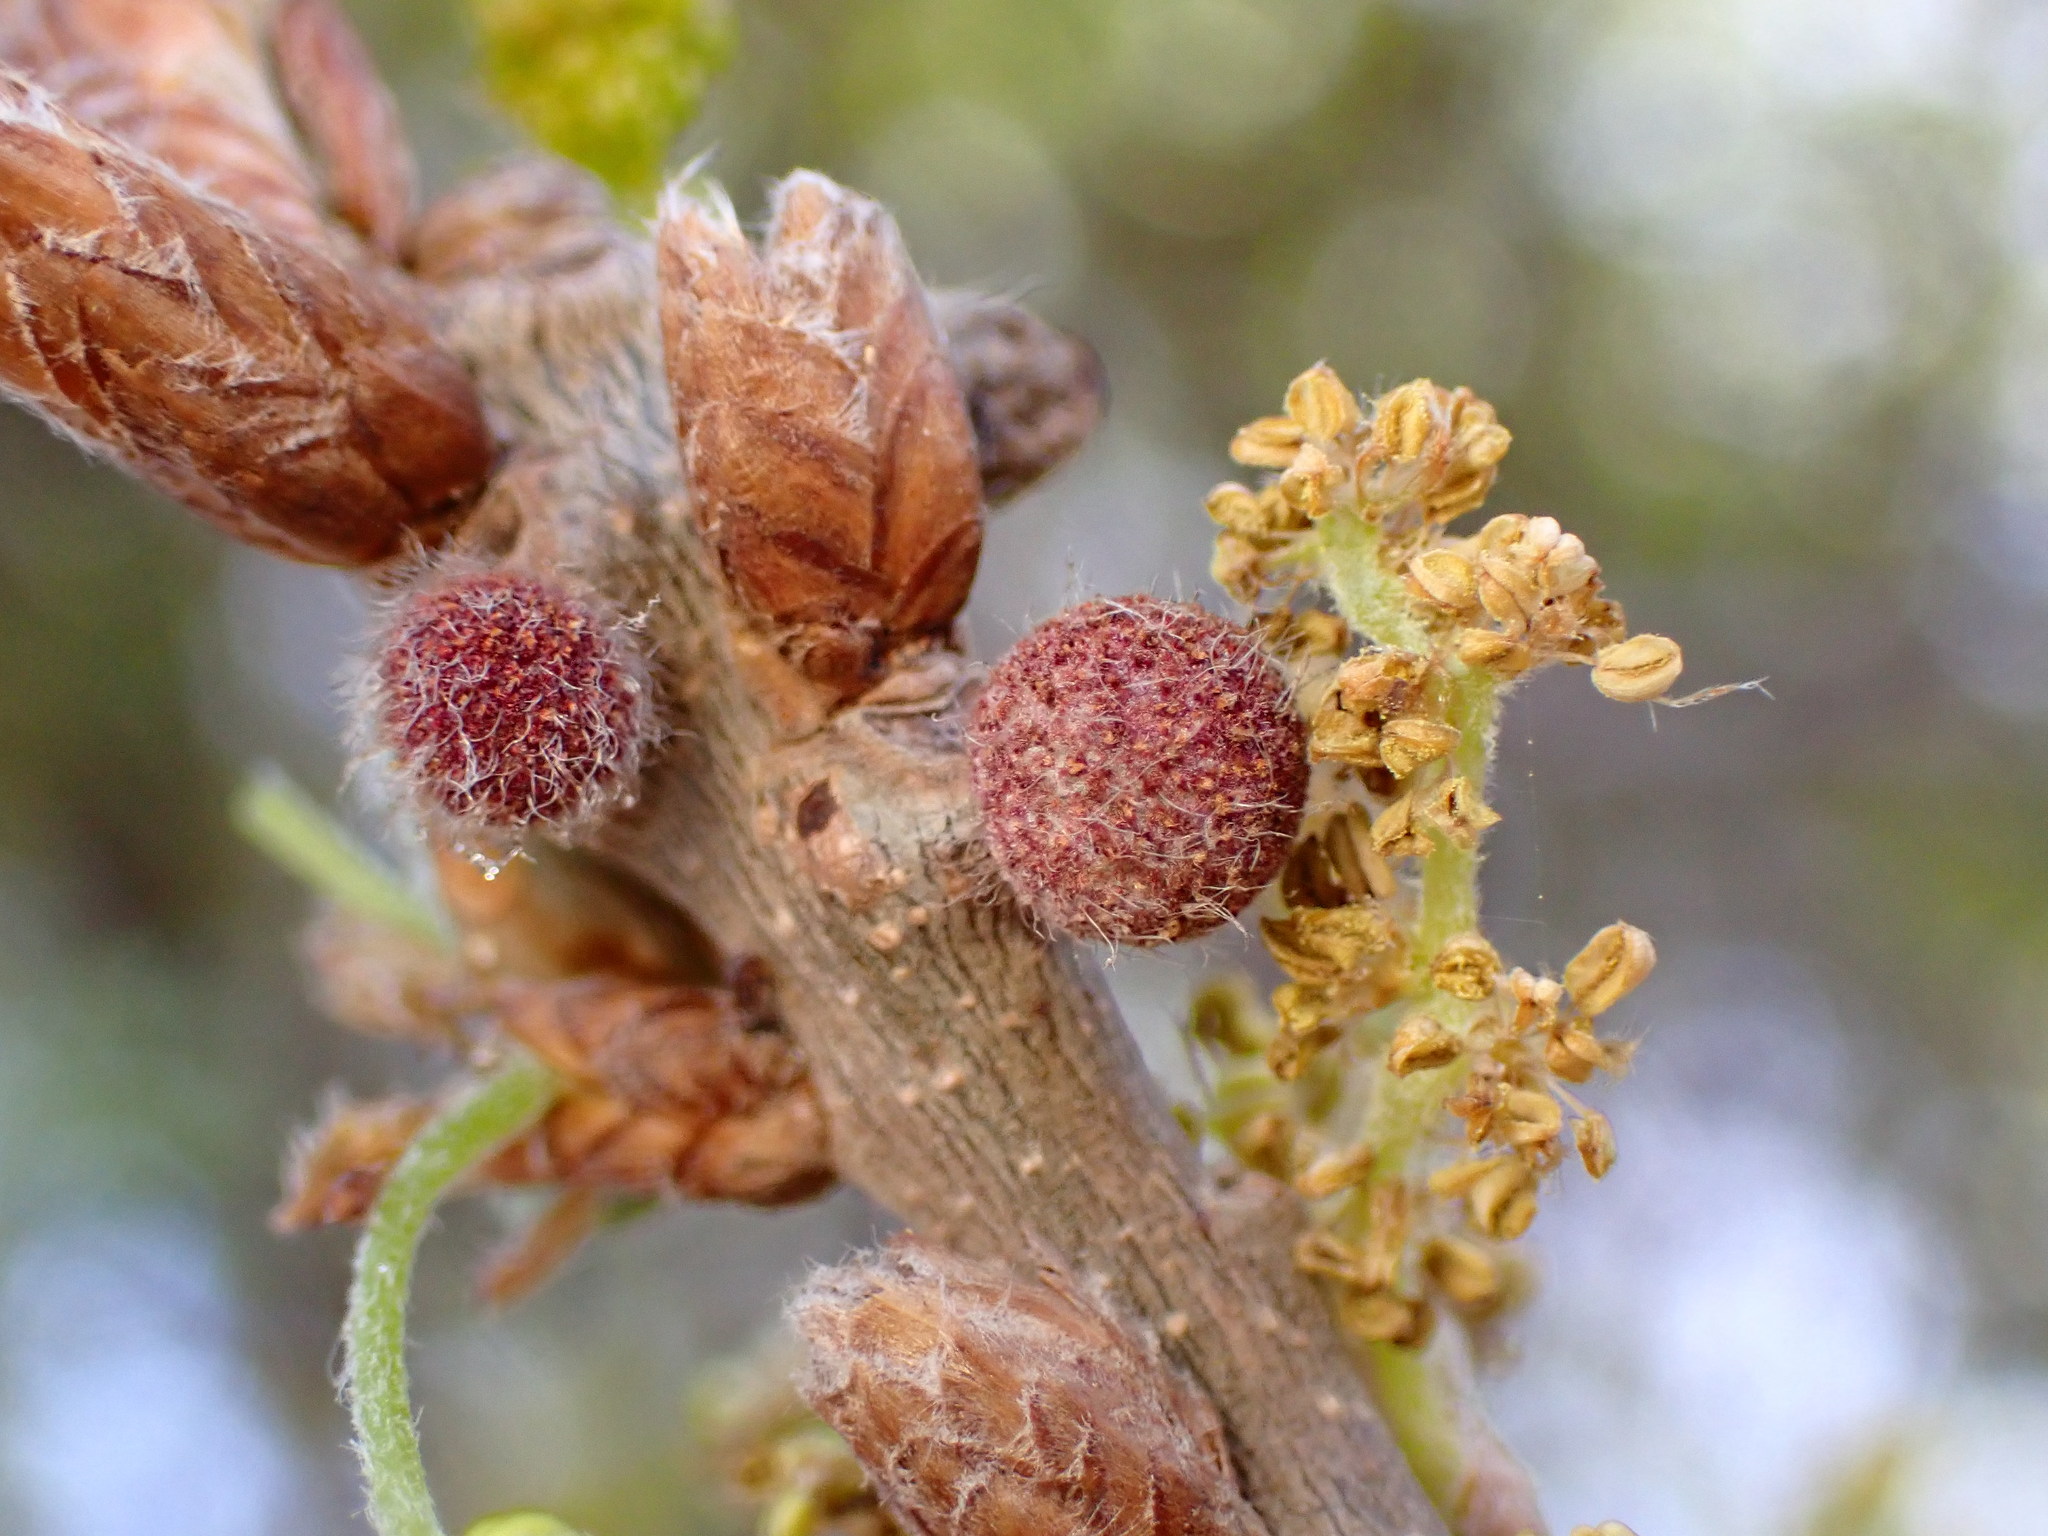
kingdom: Animalia
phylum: Arthropoda
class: Insecta
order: Hymenoptera
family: Cynipidae
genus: Burnettweldia
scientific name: Burnettweldia
